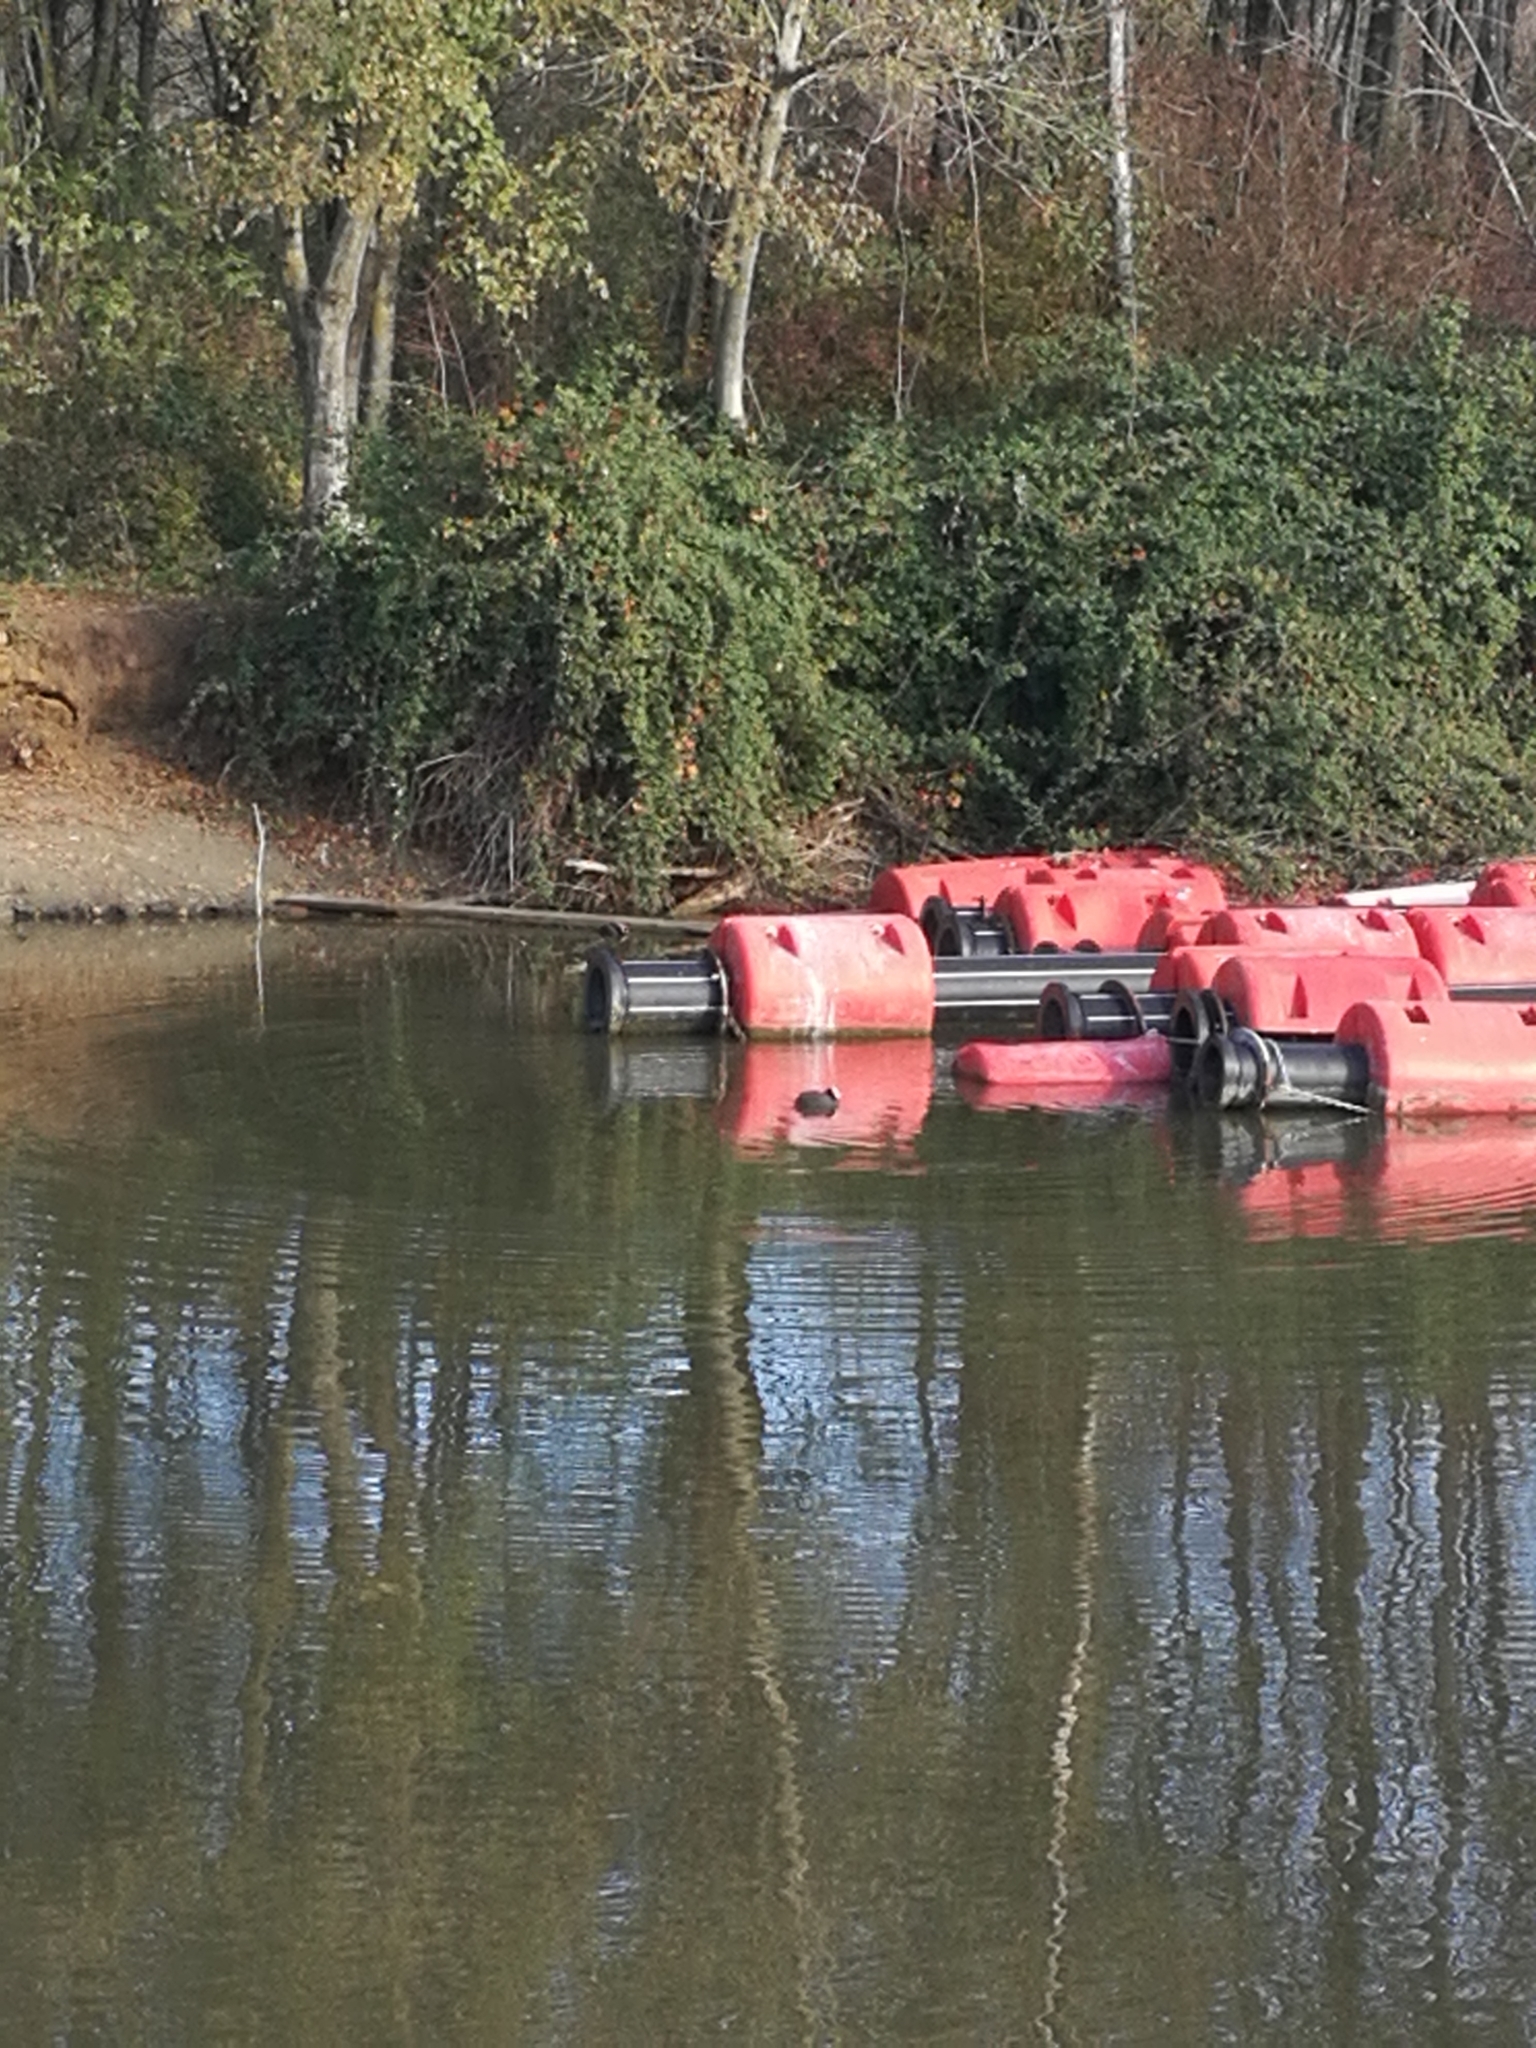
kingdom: Animalia
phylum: Chordata
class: Aves
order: Gruiformes
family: Rallidae
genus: Fulica
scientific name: Fulica atra
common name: Eurasian coot
